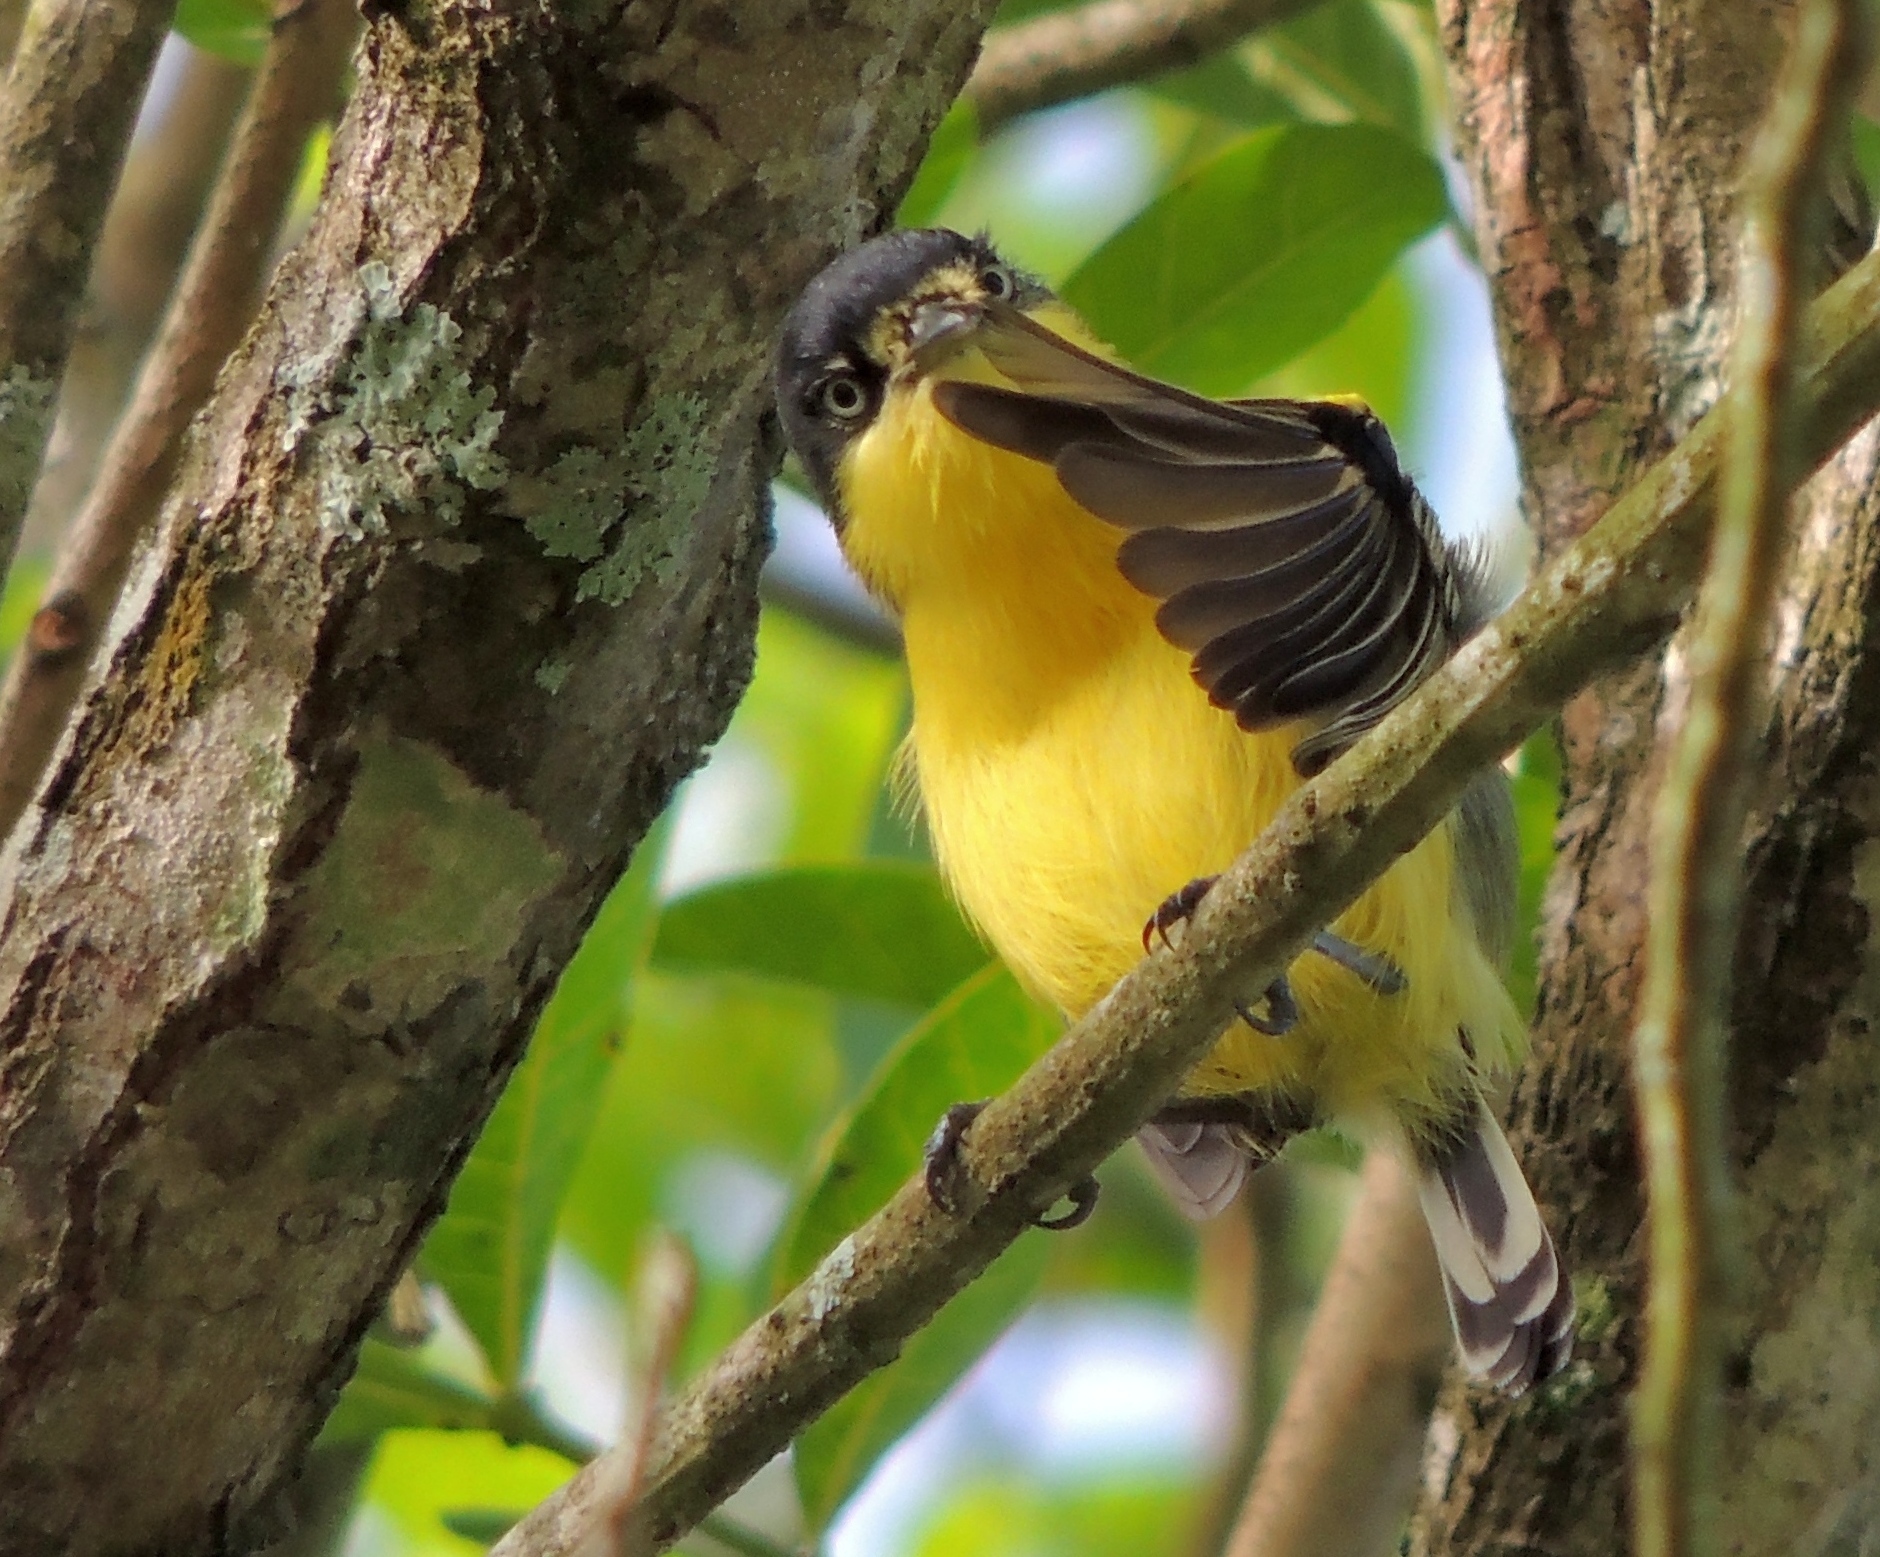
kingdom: Animalia
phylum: Chordata
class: Aves
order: Passeriformes
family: Tyrannidae
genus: Todirostrum
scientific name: Todirostrum cinereum
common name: Common tody-flycatcher
